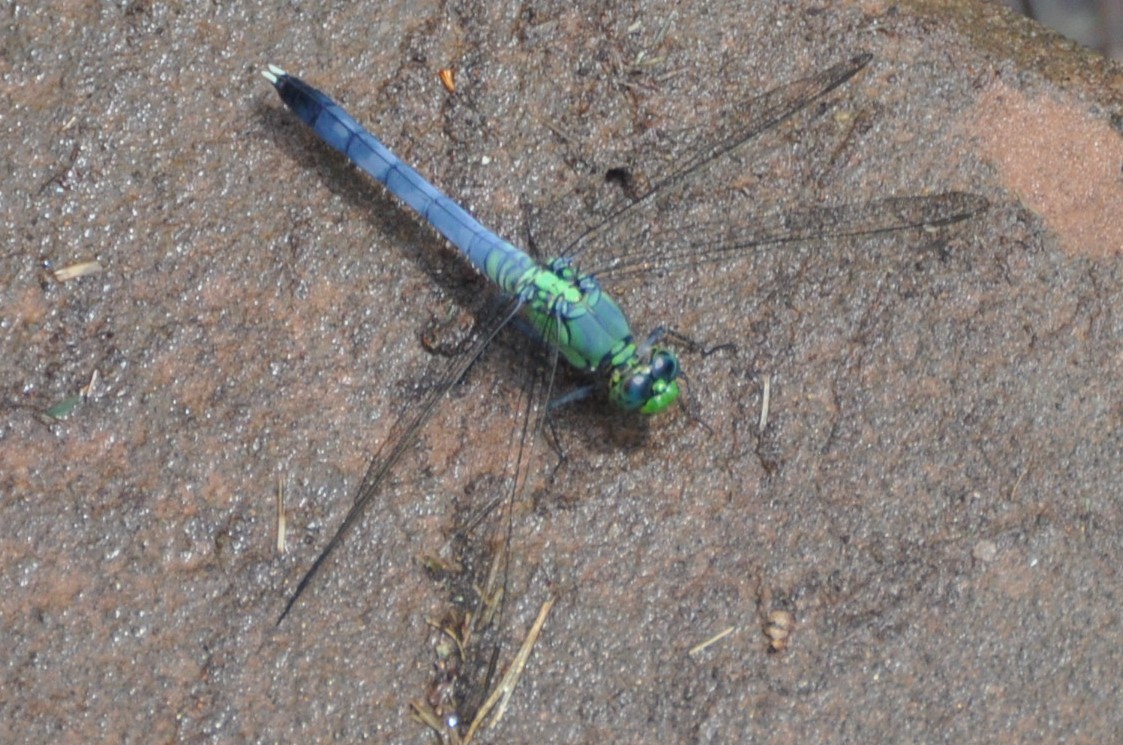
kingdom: Animalia
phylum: Arthropoda
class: Insecta
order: Odonata
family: Libellulidae
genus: Erythemis
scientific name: Erythemis simplicicollis
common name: Eastern pondhawk
